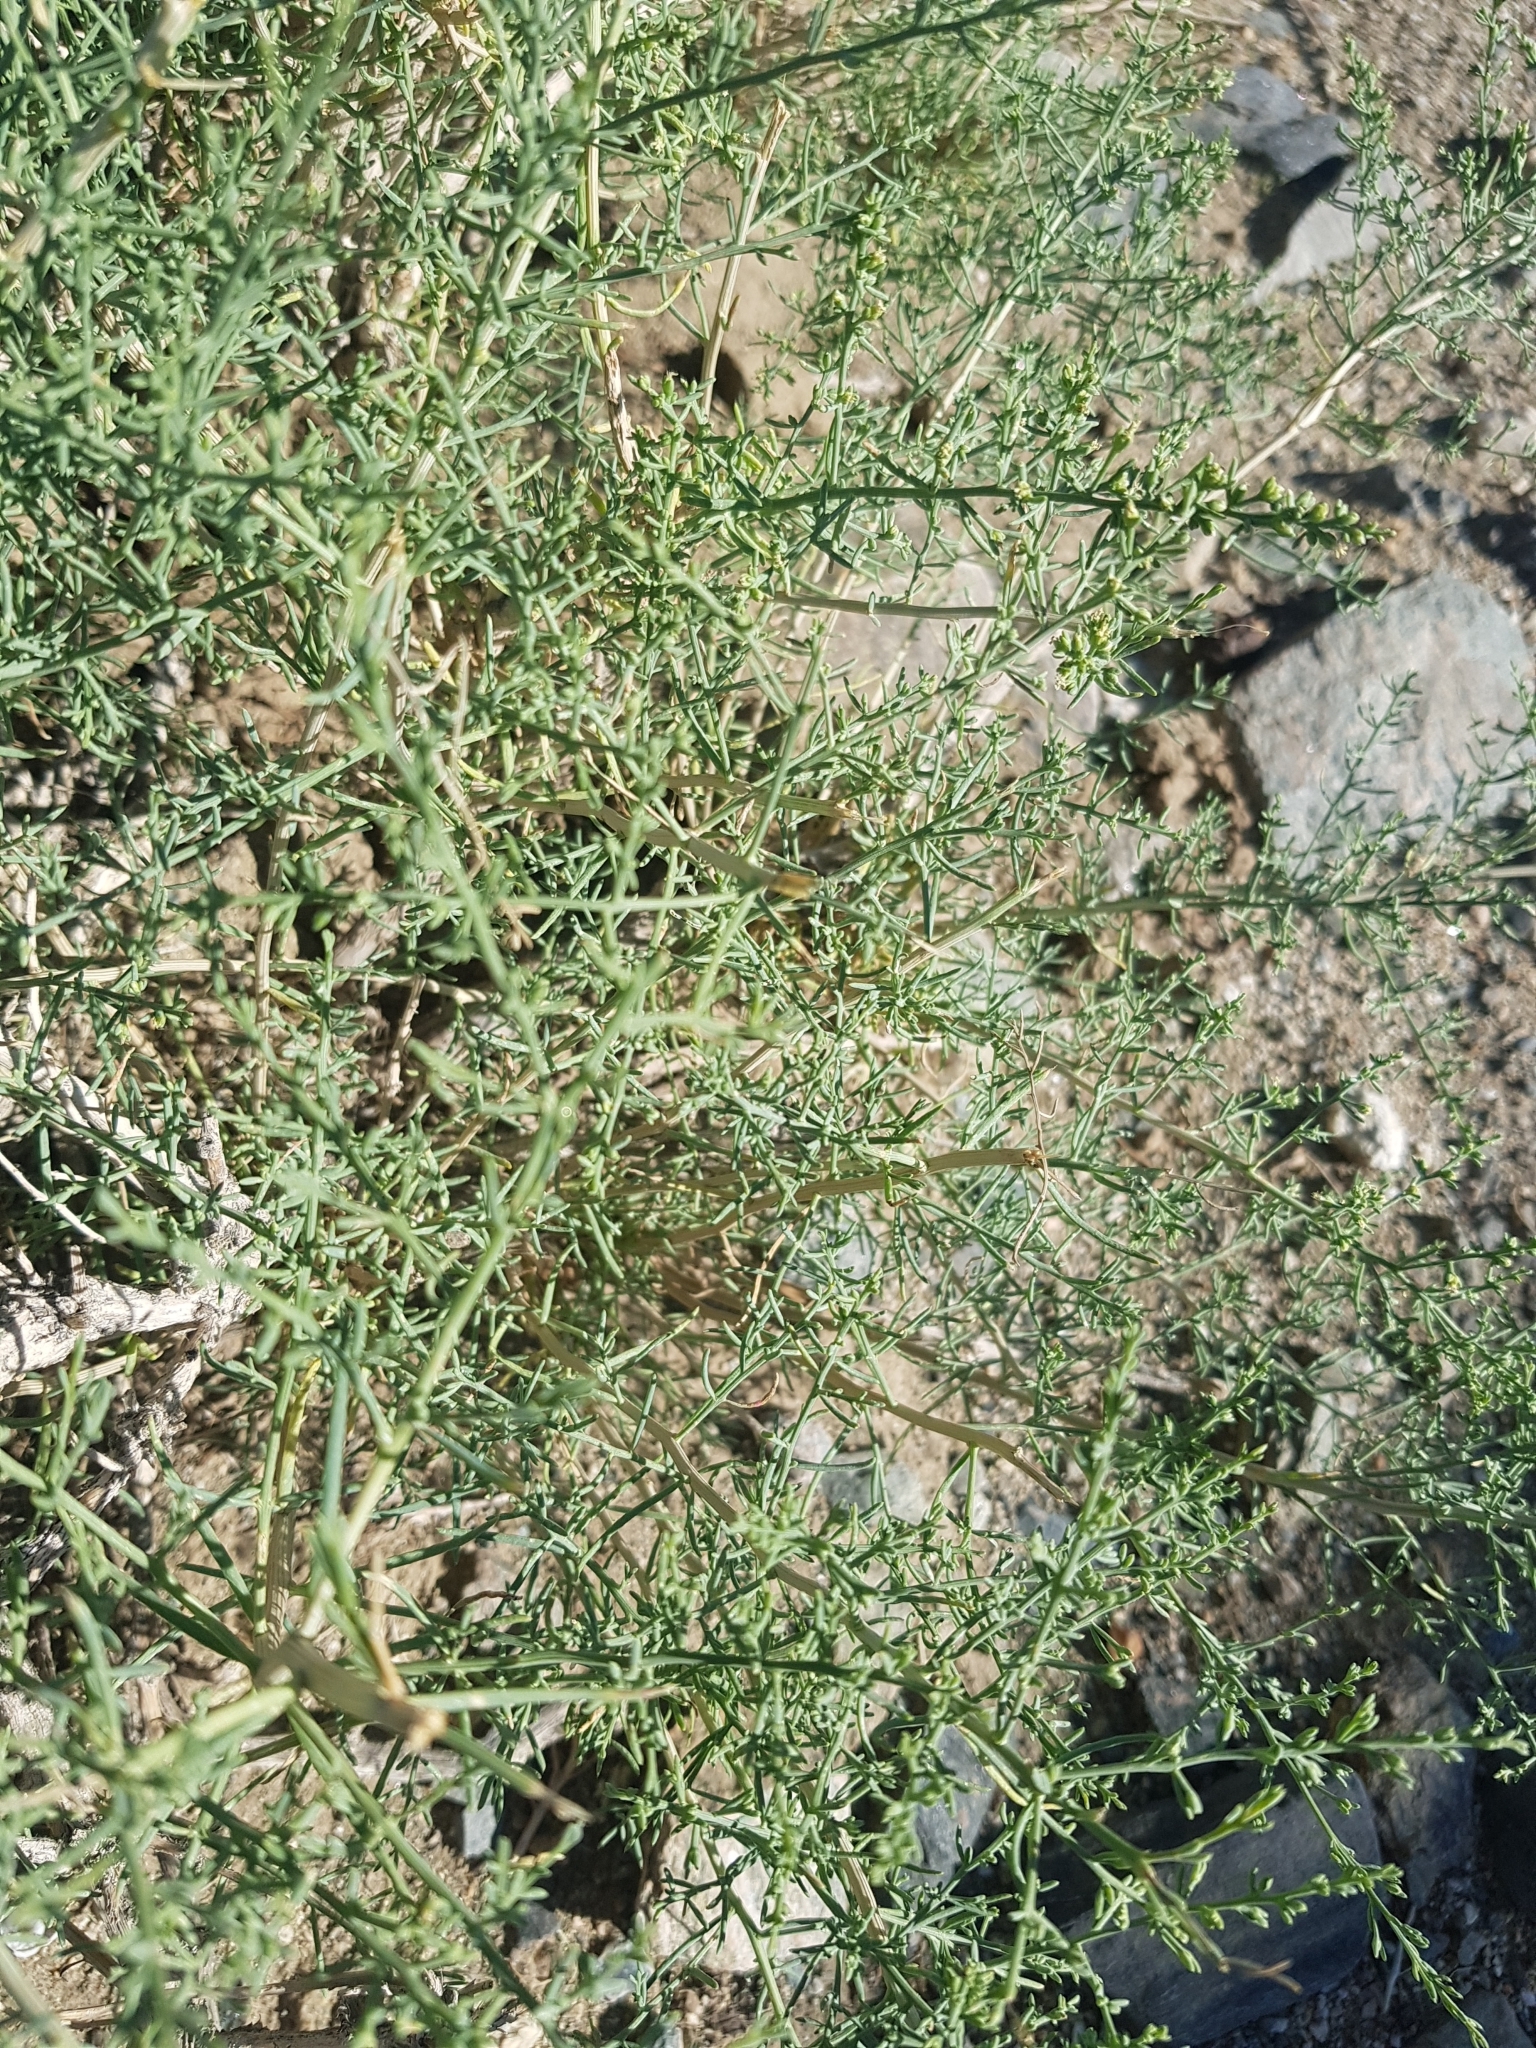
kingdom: Plantae
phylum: Tracheophyta
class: Magnoliopsida
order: Caryophyllales
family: Amaranthaceae
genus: Sympegma
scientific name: Sympegma regelii
